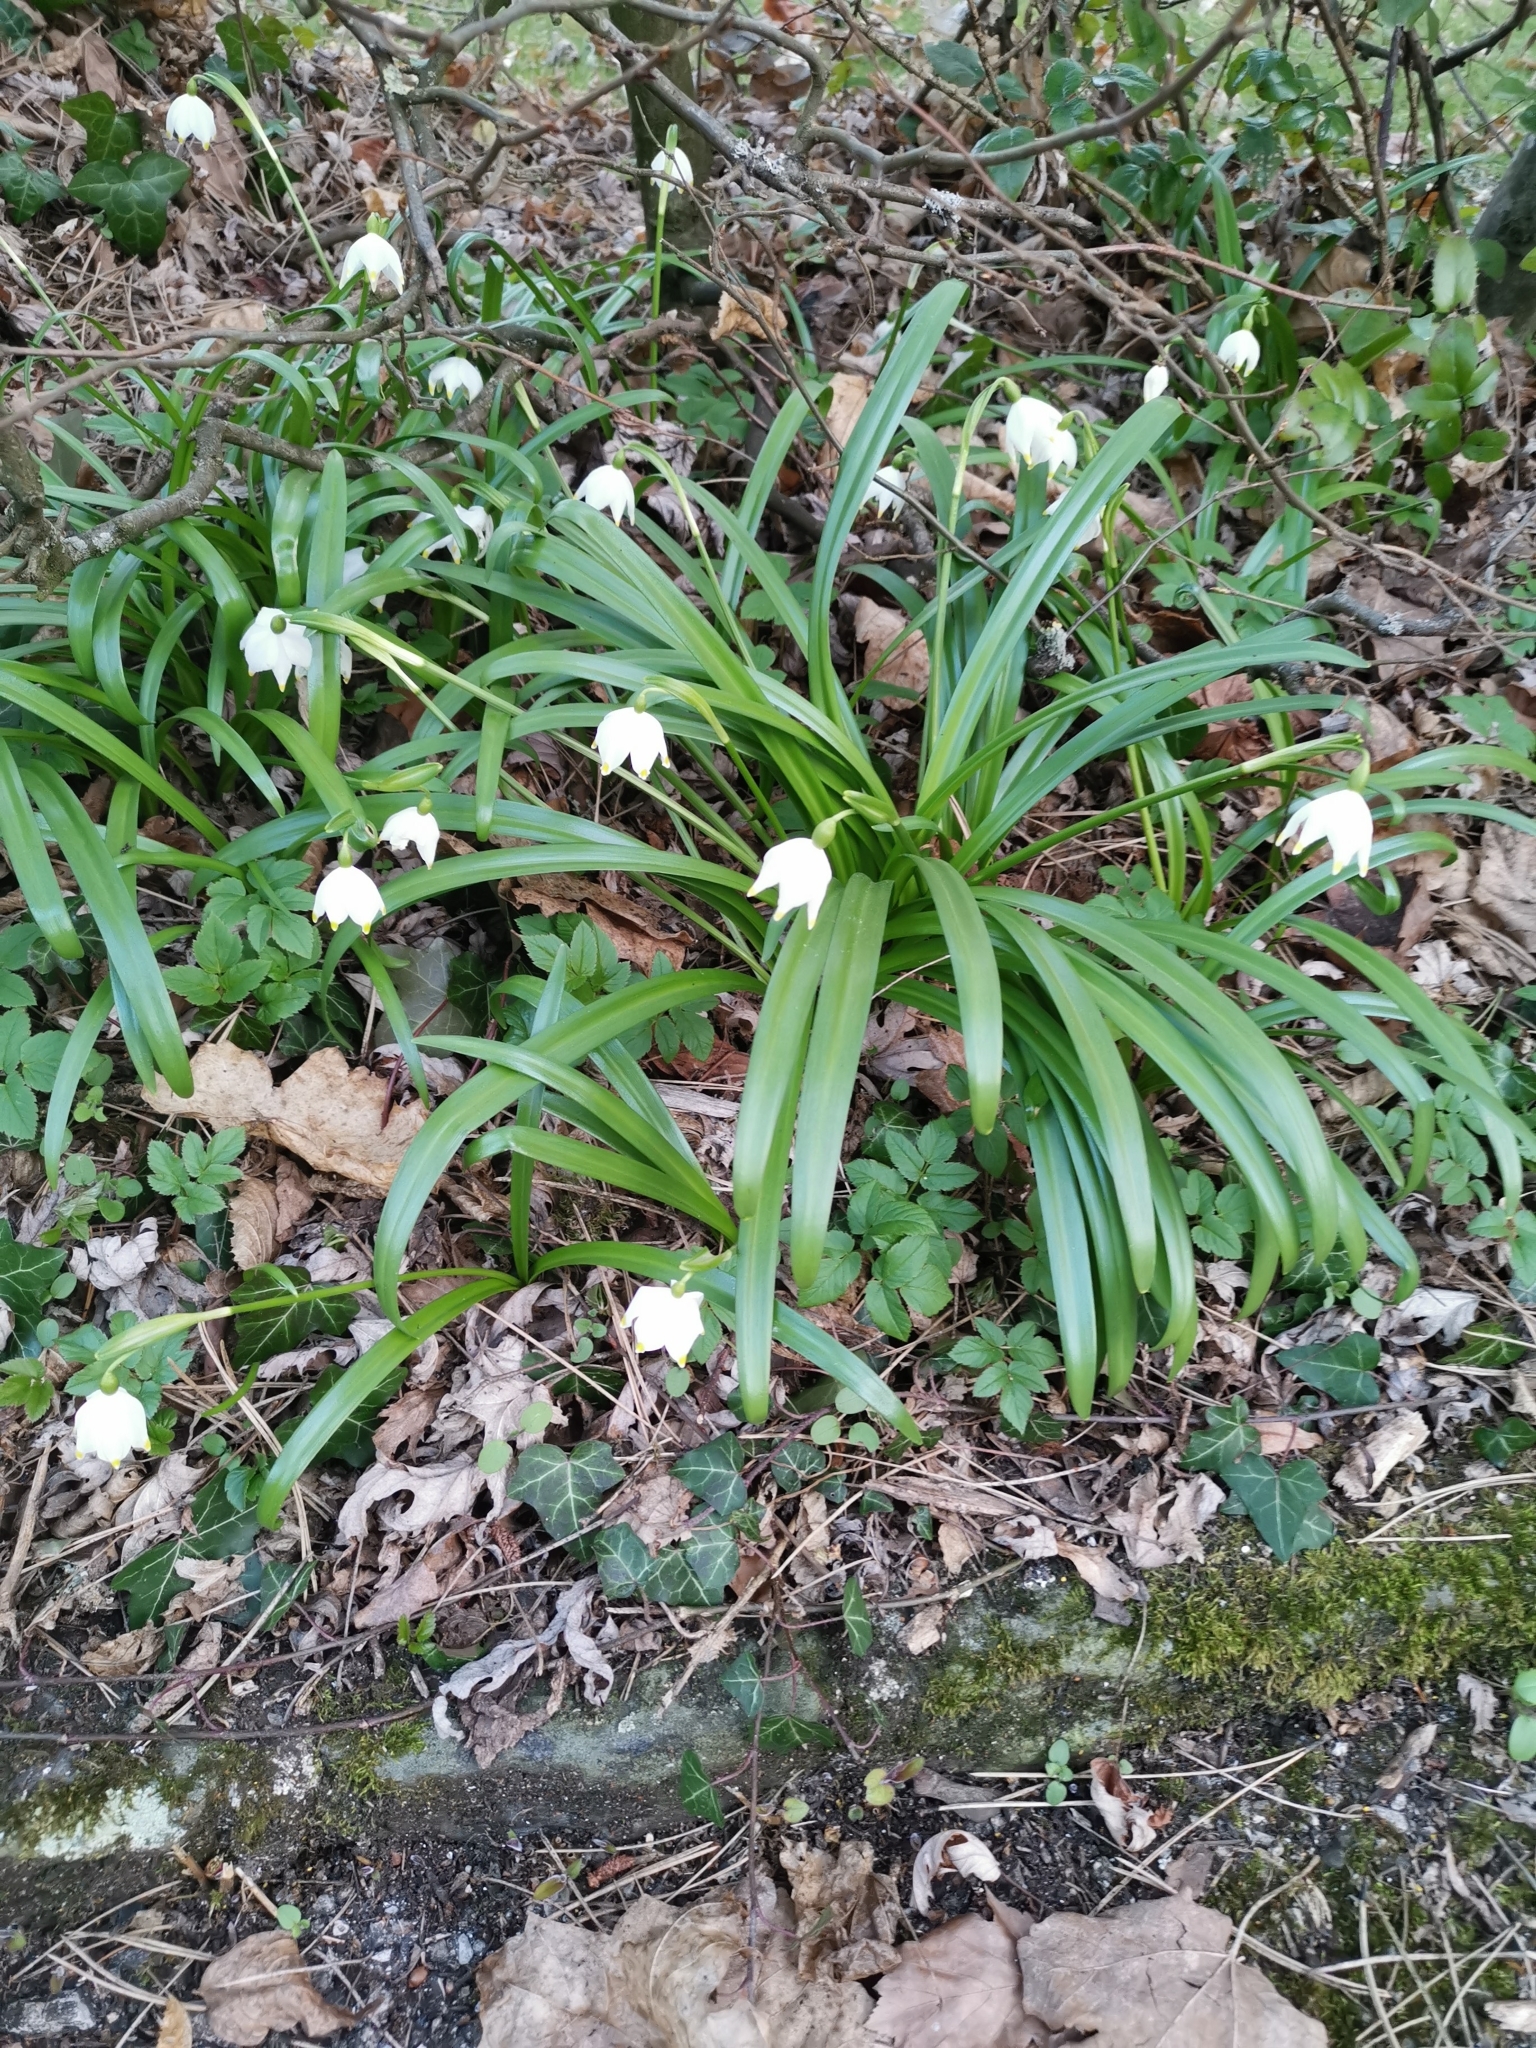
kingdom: Plantae
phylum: Tracheophyta
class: Liliopsida
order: Asparagales
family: Amaryllidaceae
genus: Leucojum
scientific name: Leucojum vernum
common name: Spring snowflake
